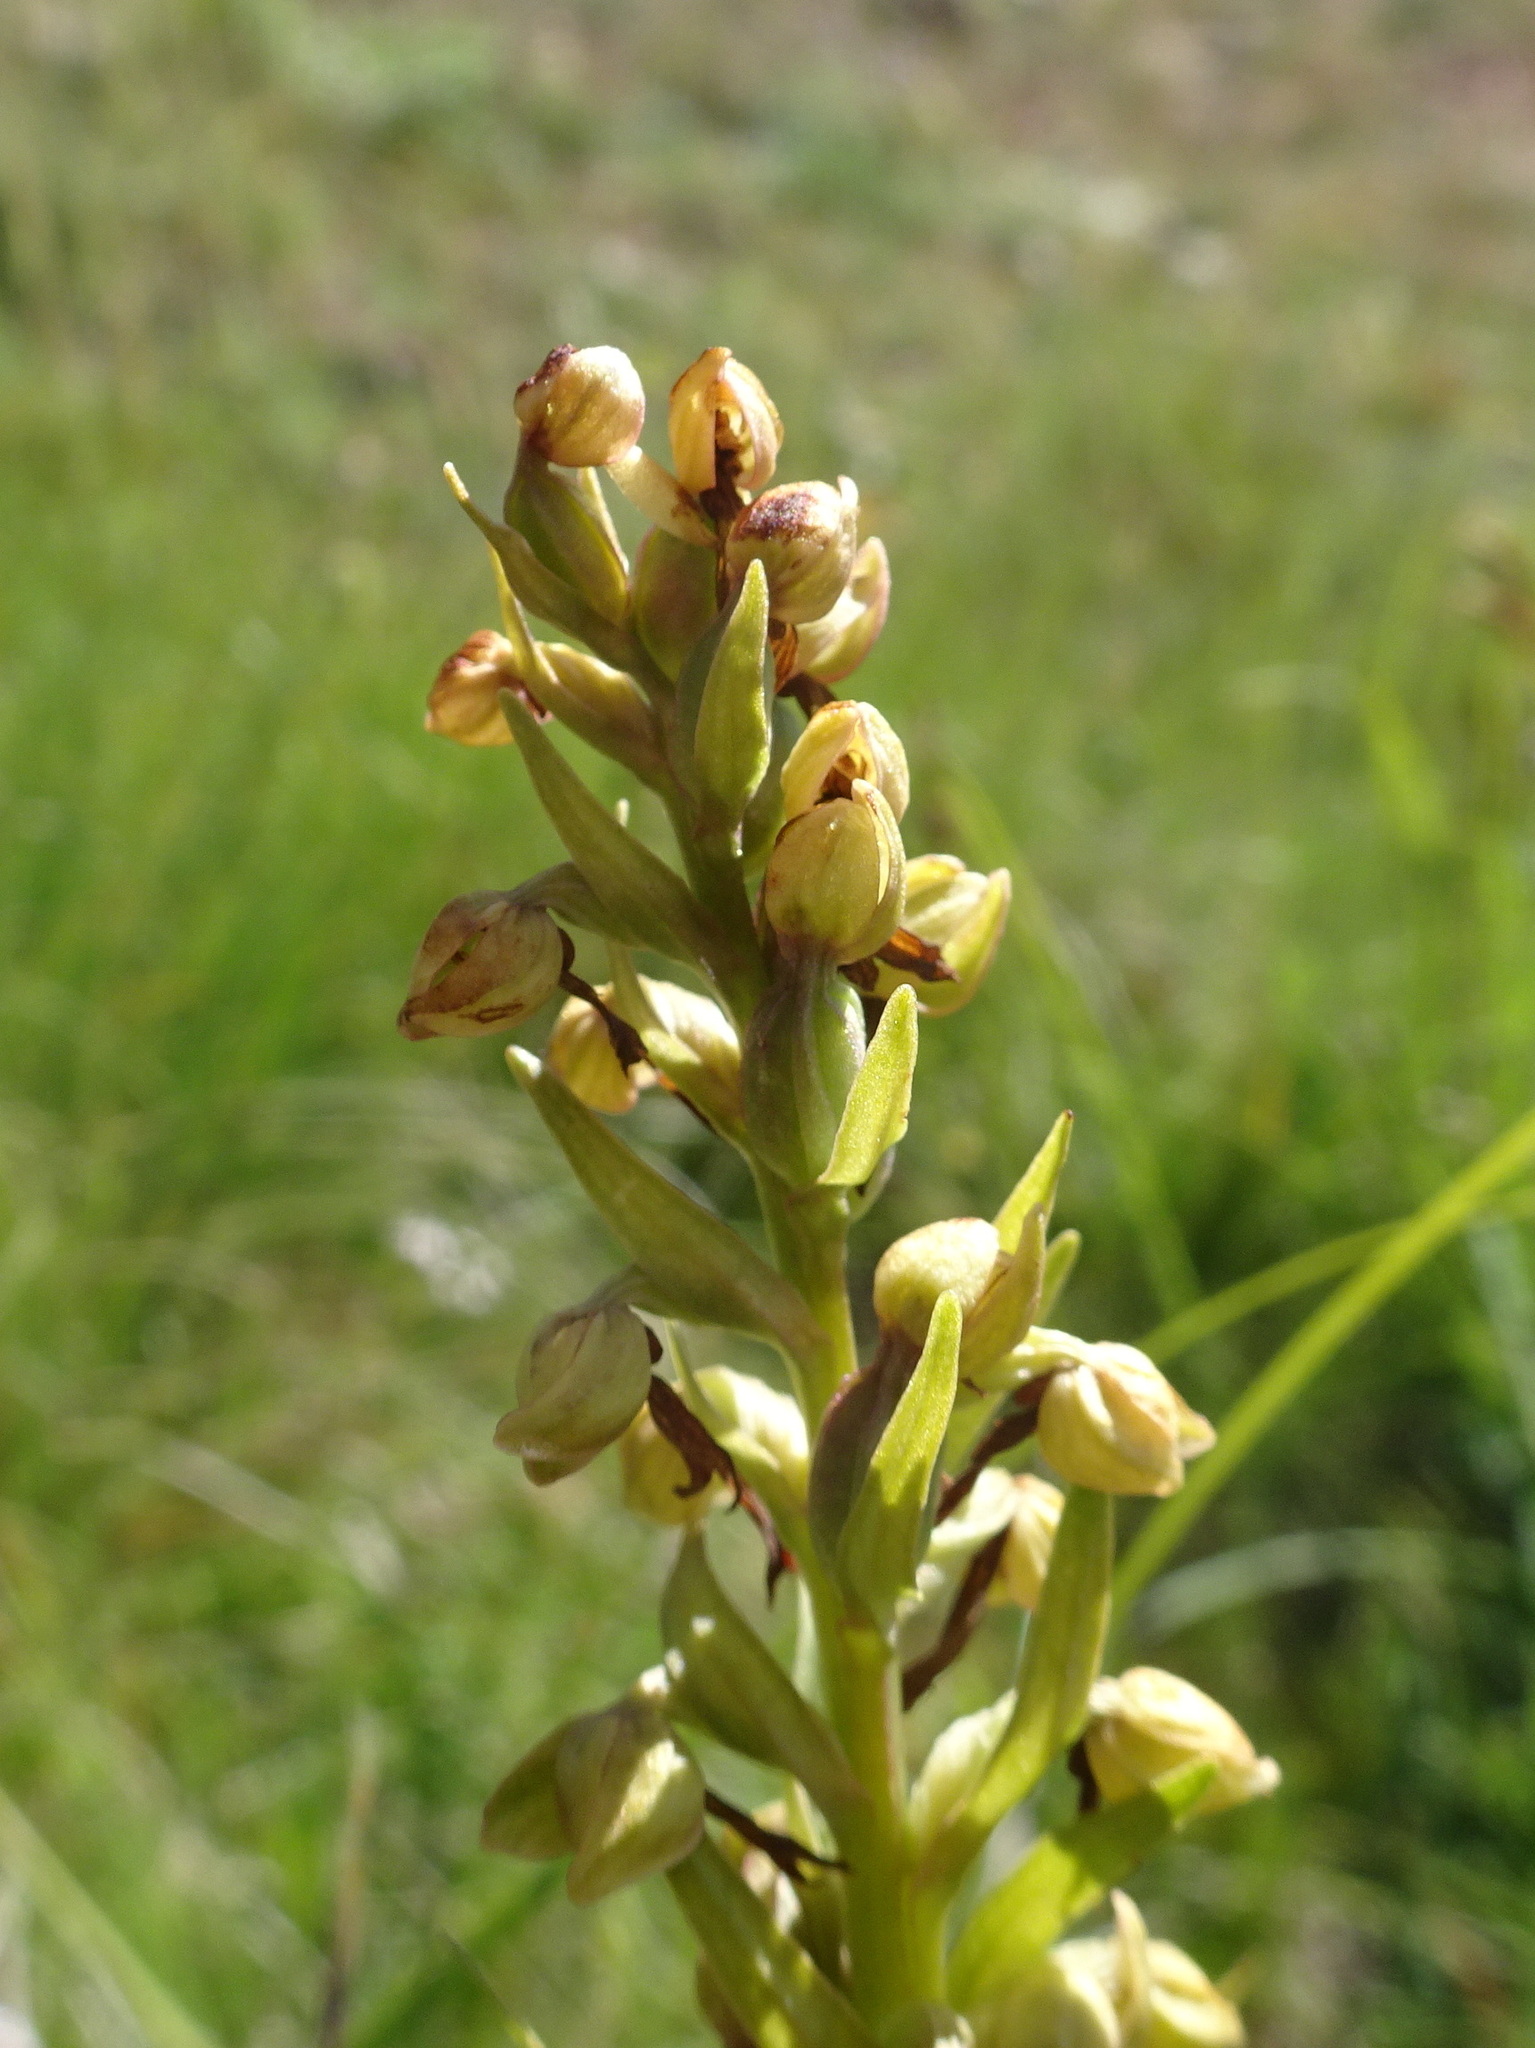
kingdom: Plantae
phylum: Tracheophyta
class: Liliopsida
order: Asparagales
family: Orchidaceae
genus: Dactylorhiza
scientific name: Dactylorhiza viridis
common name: Longbract frog orchid
